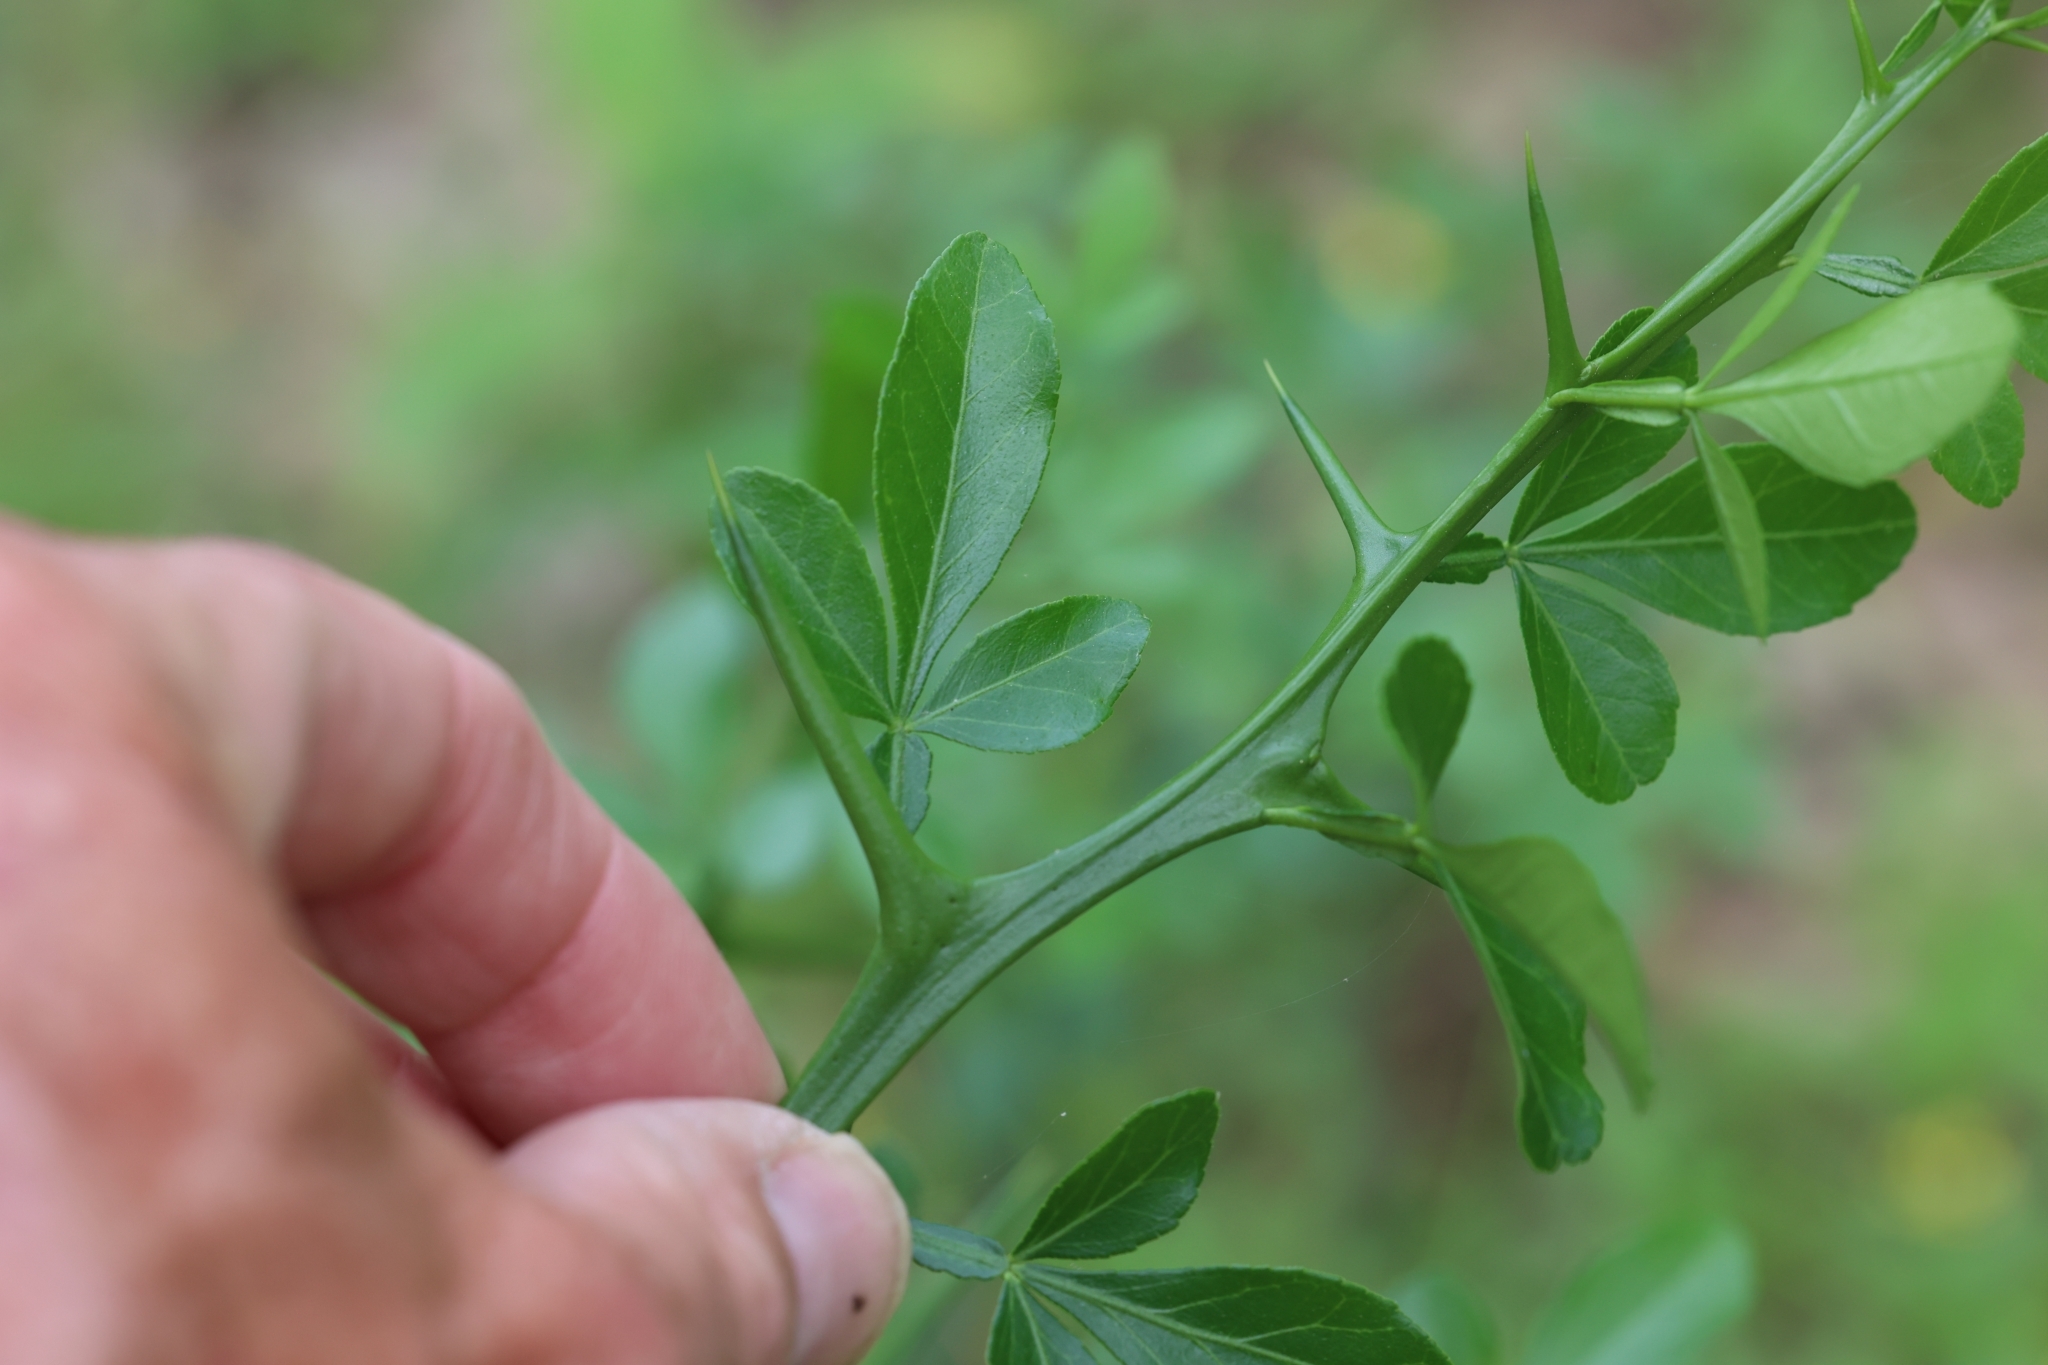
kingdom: Plantae
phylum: Tracheophyta
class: Magnoliopsida
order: Sapindales
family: Rutaceae
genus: Citrus
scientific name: Citrus trifoliata
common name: Japanese bitter-orange
